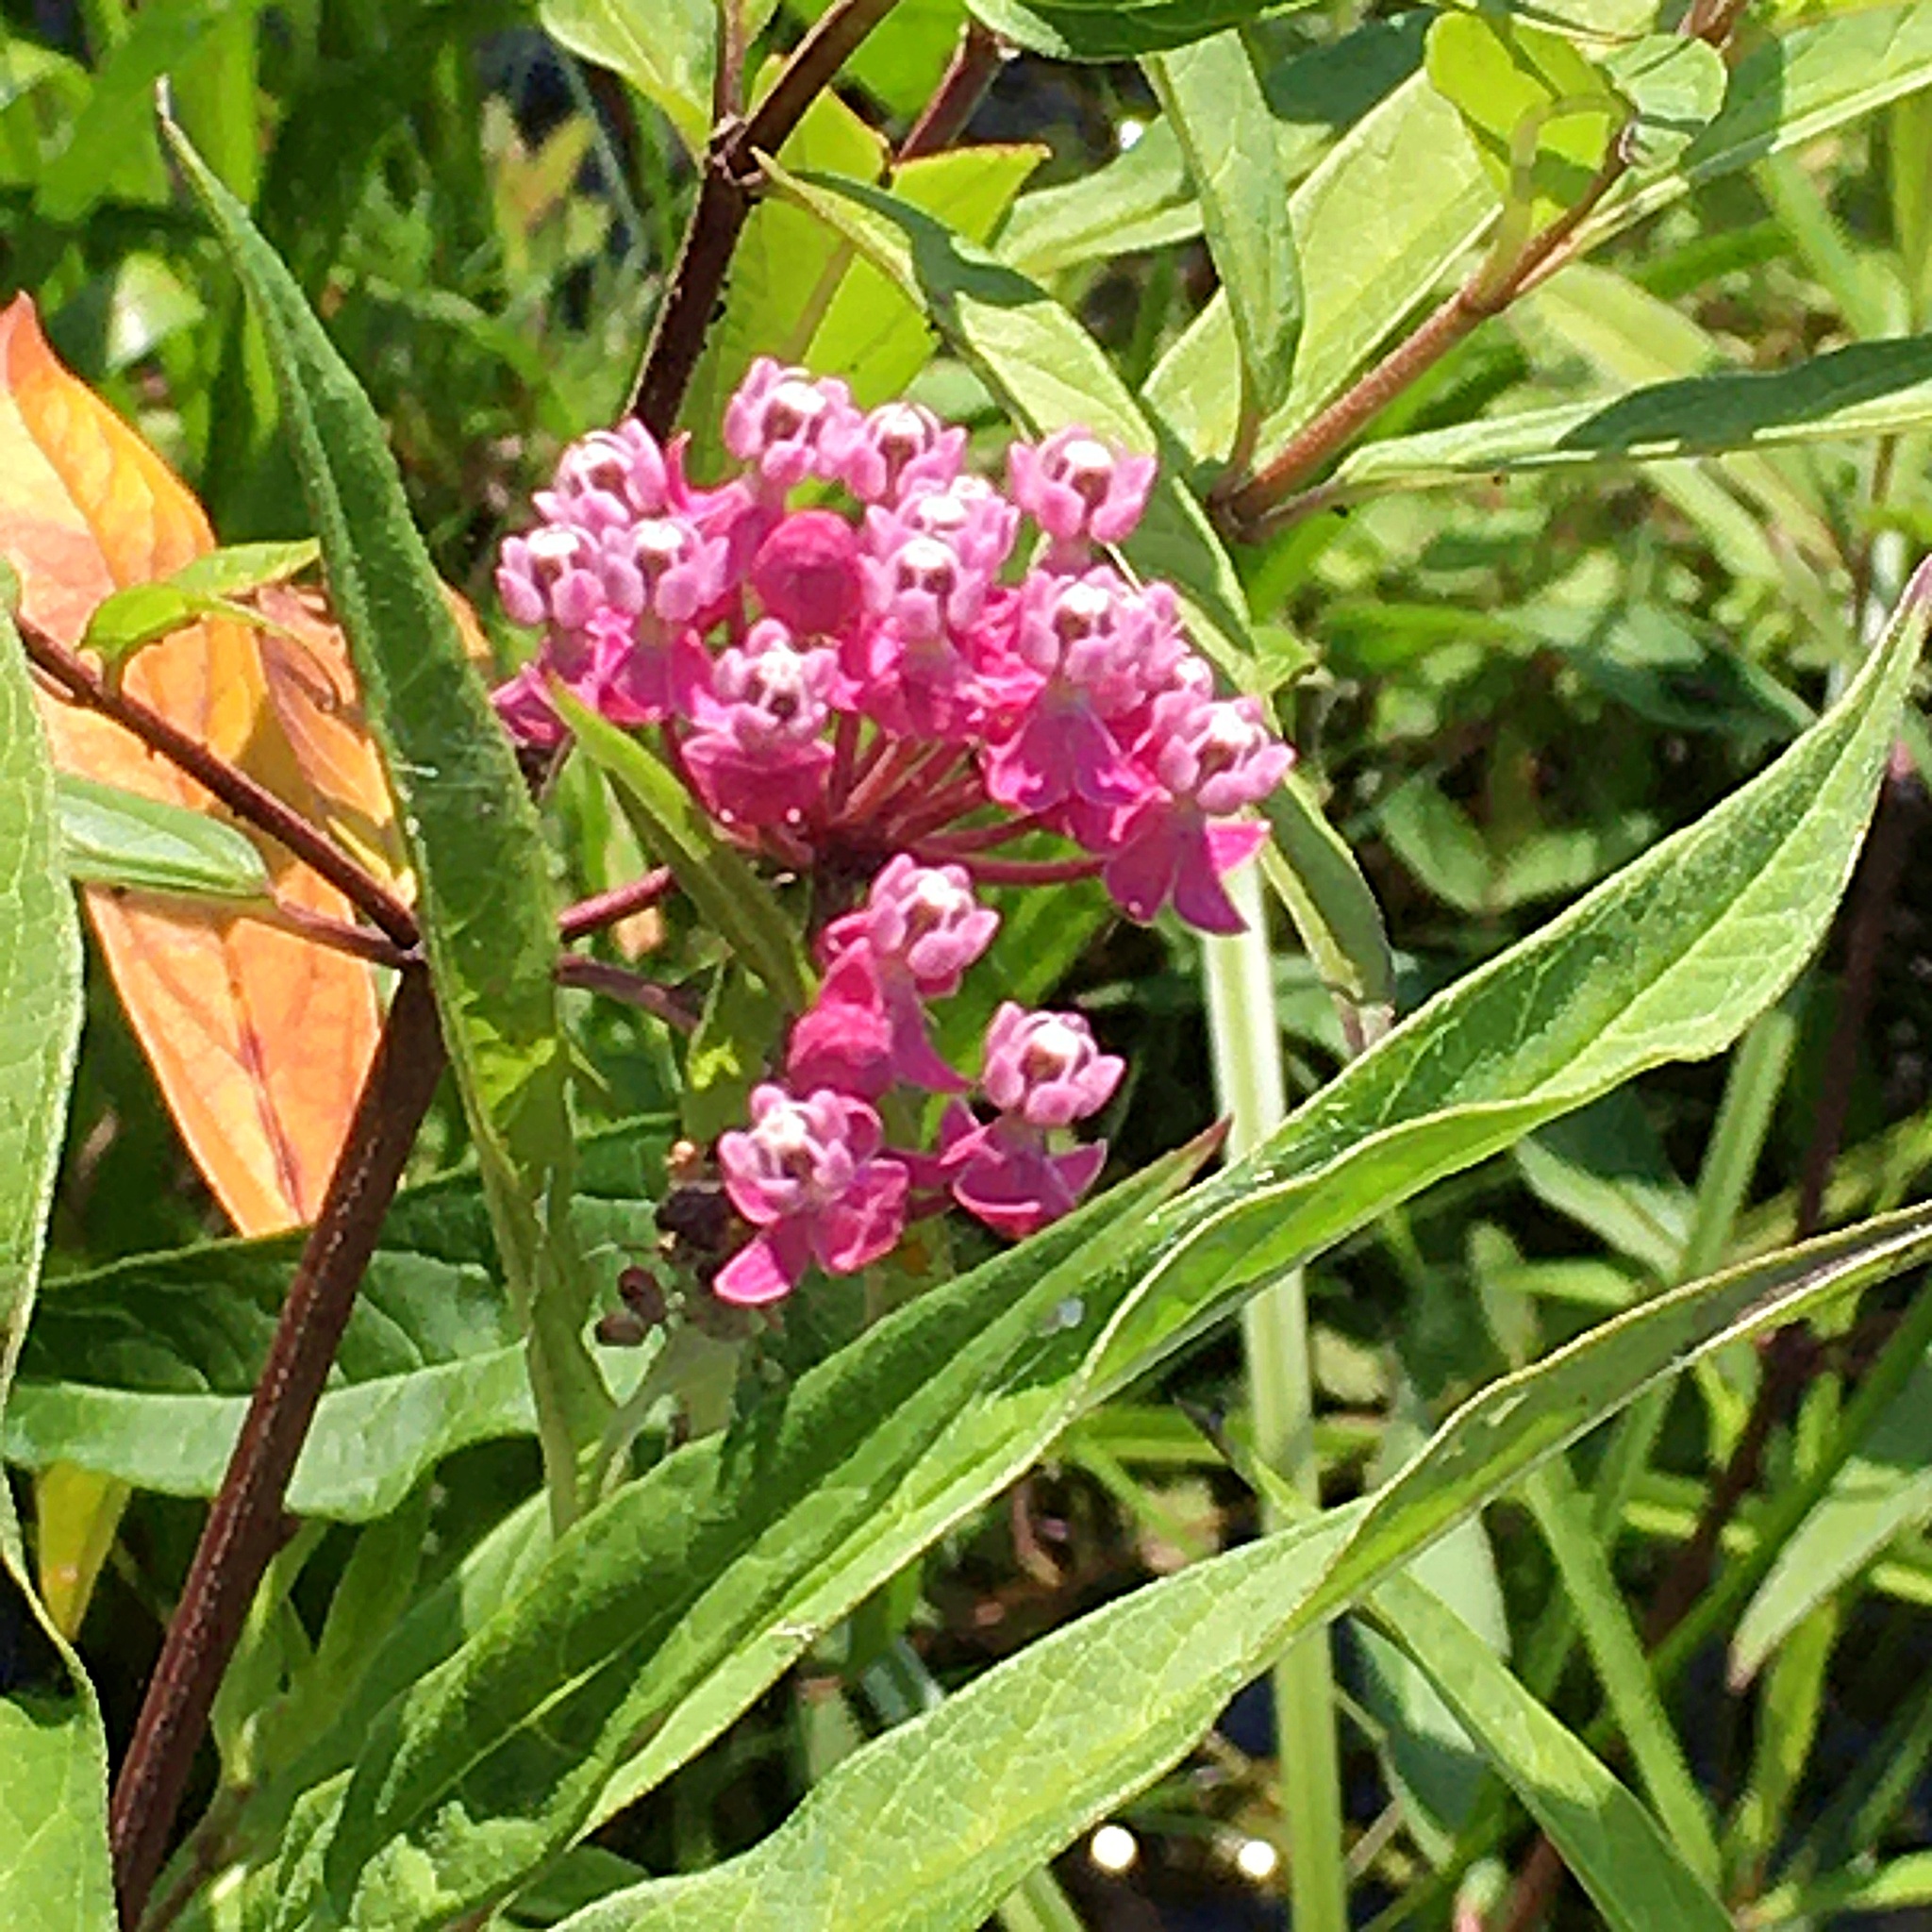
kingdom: Plantae
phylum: Tracheophyta
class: Magnoliopsida
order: Gentianales
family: Apocynaceae
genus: Asclepias
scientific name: Asclepias incarnata
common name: Swamp milkweed
